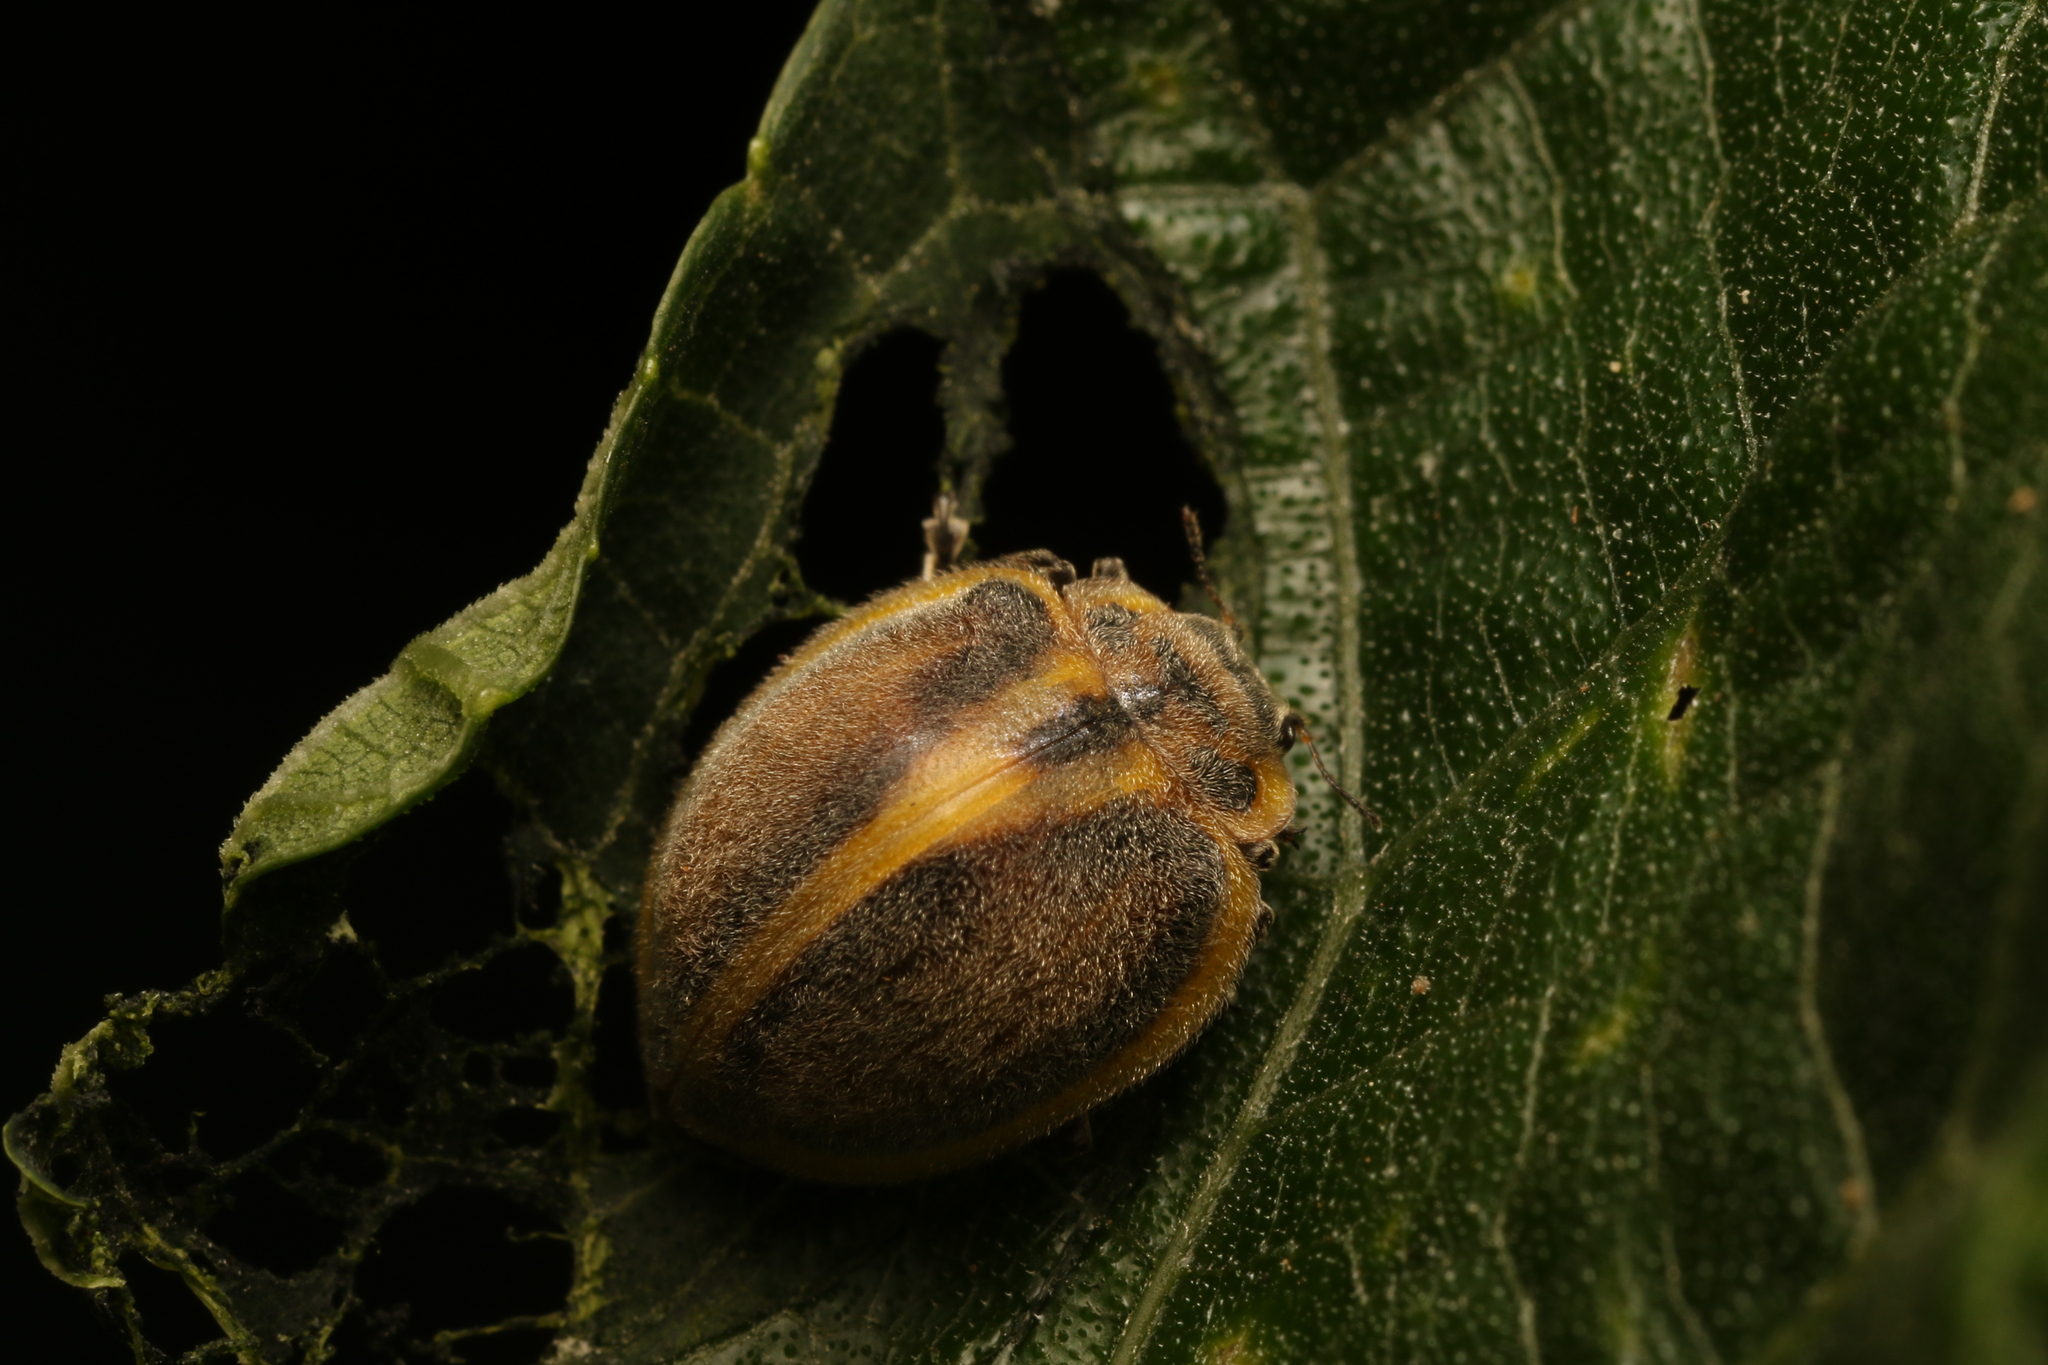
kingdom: Animalia
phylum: Arthropoda
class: Insecta
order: Coleoptera
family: Coccinellidae
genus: Epilachna
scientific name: Epilachna
